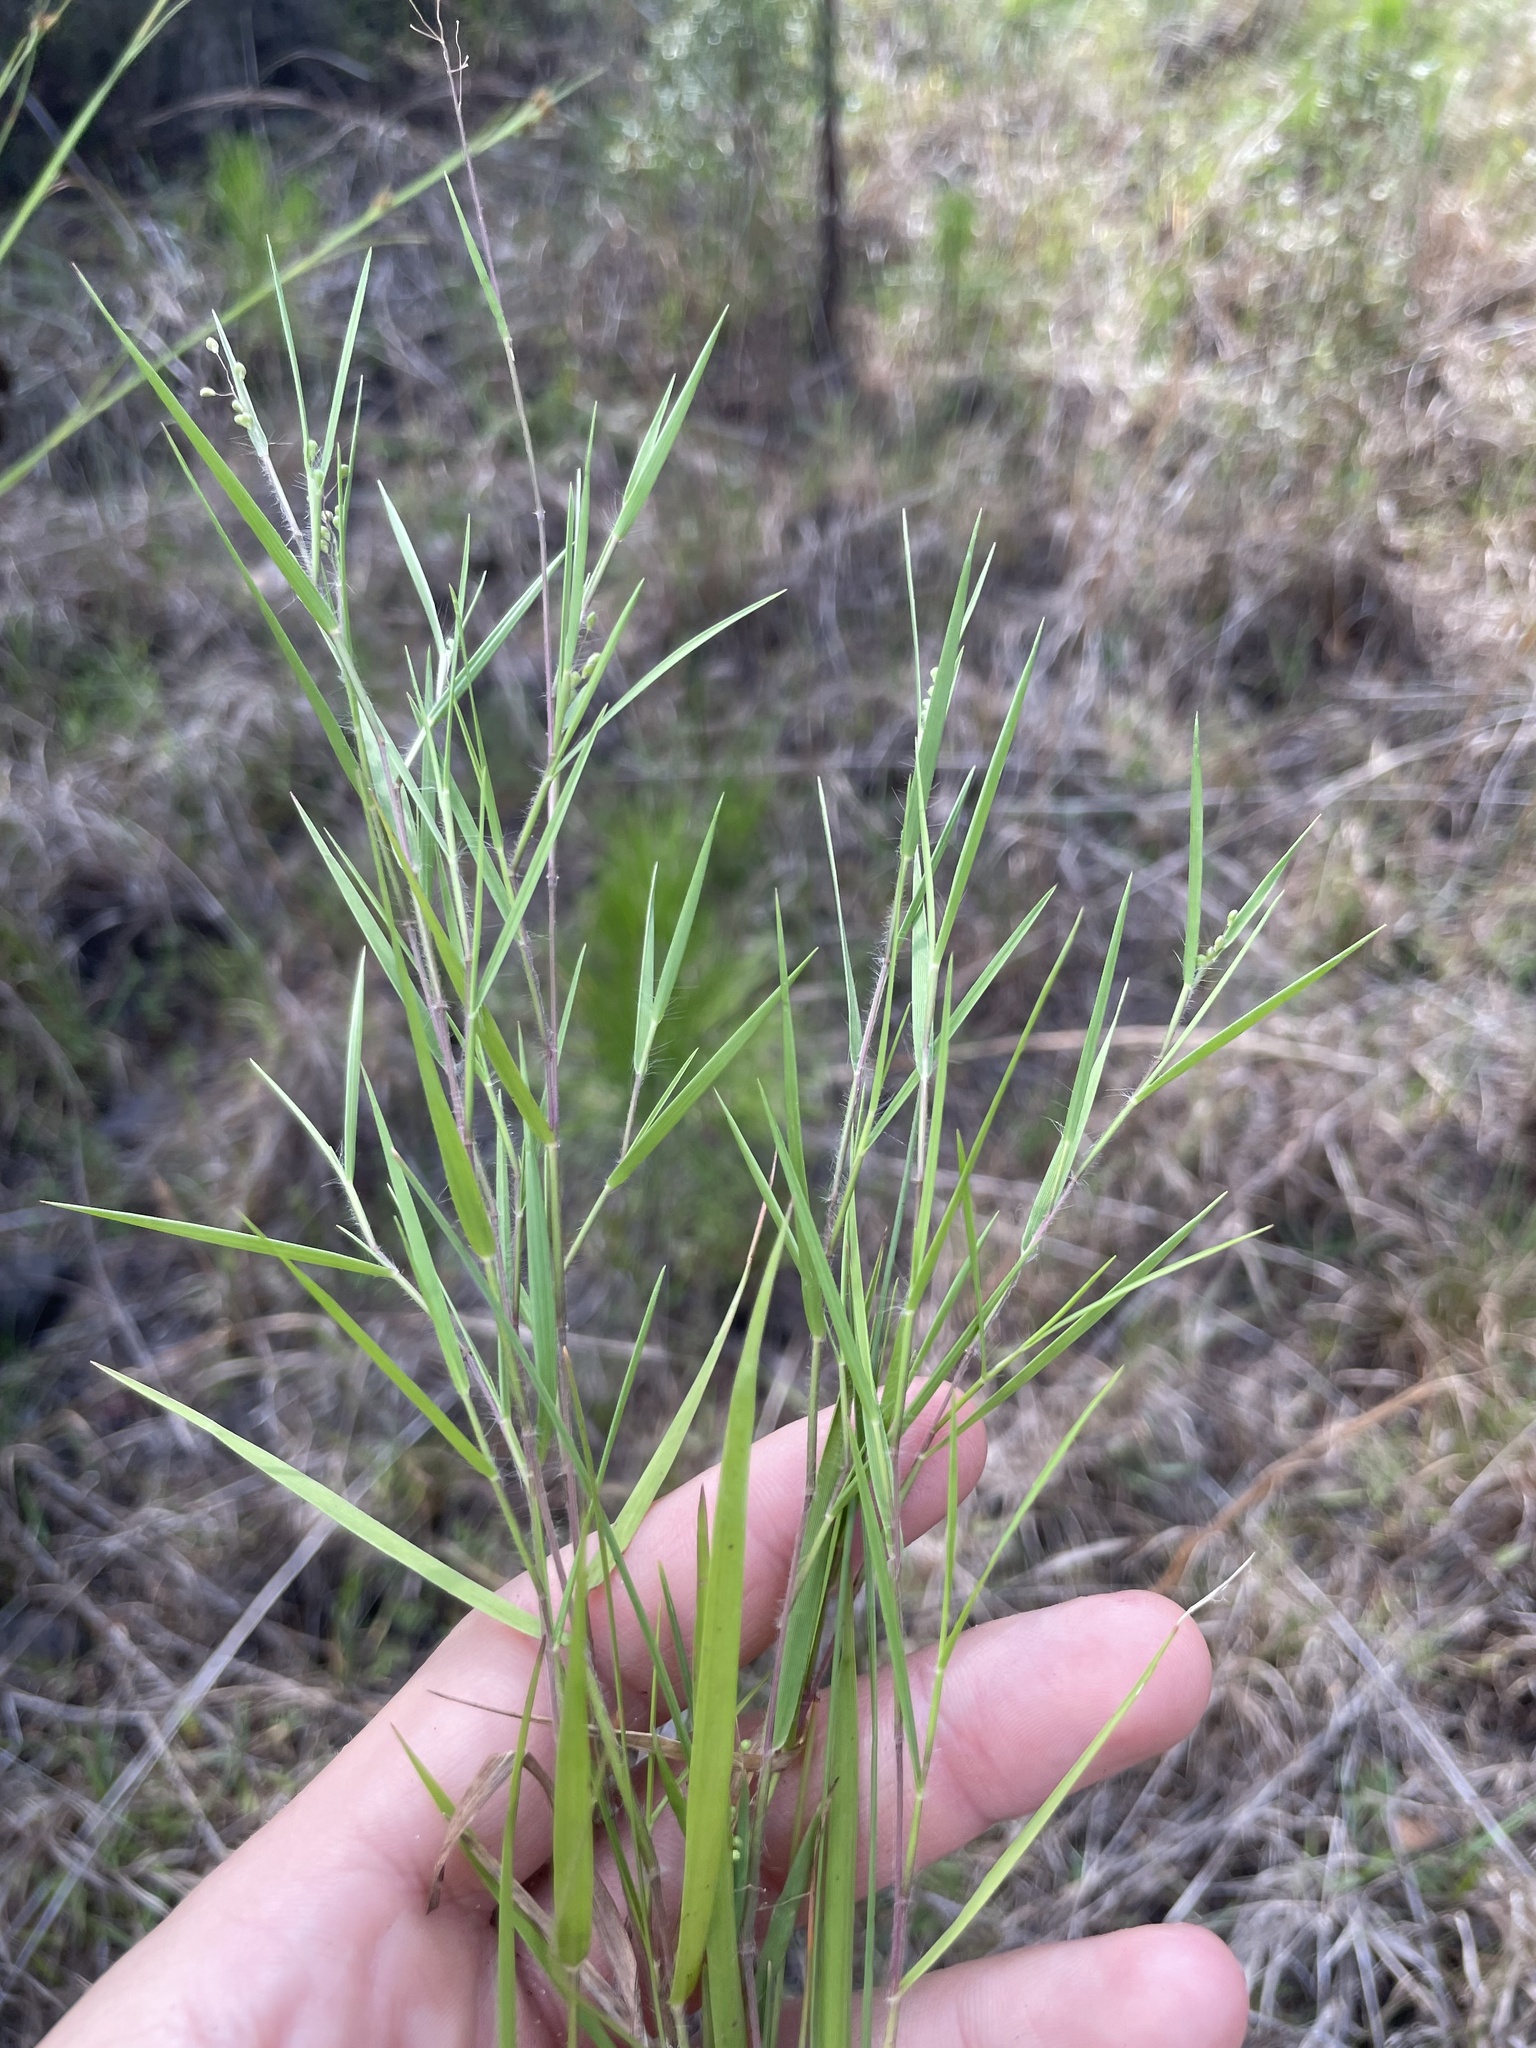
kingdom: Plantae
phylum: Tracheophyta
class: Liliopsida
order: Poales
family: Poaceae
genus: Dichanthelium
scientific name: Dichanthelium filiramum
